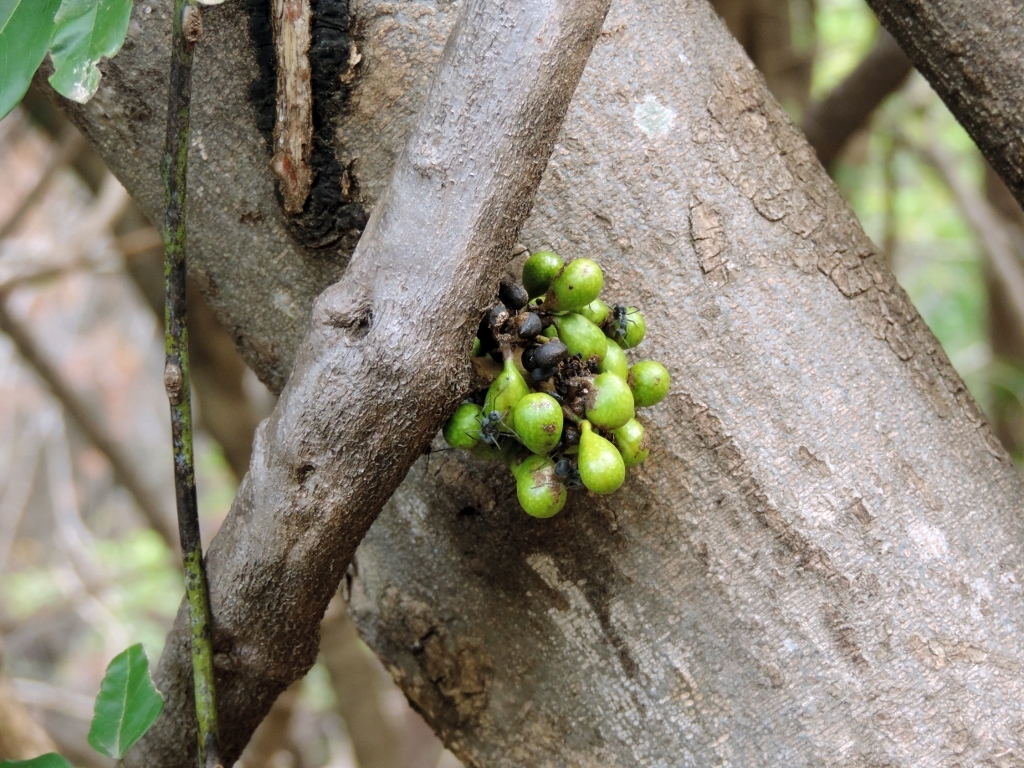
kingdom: Plantae
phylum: Tracheophyta
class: Magnoliopsida
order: Ranunculales
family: Menispermaceae
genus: Tiliacora
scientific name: Tiliacora funifera
